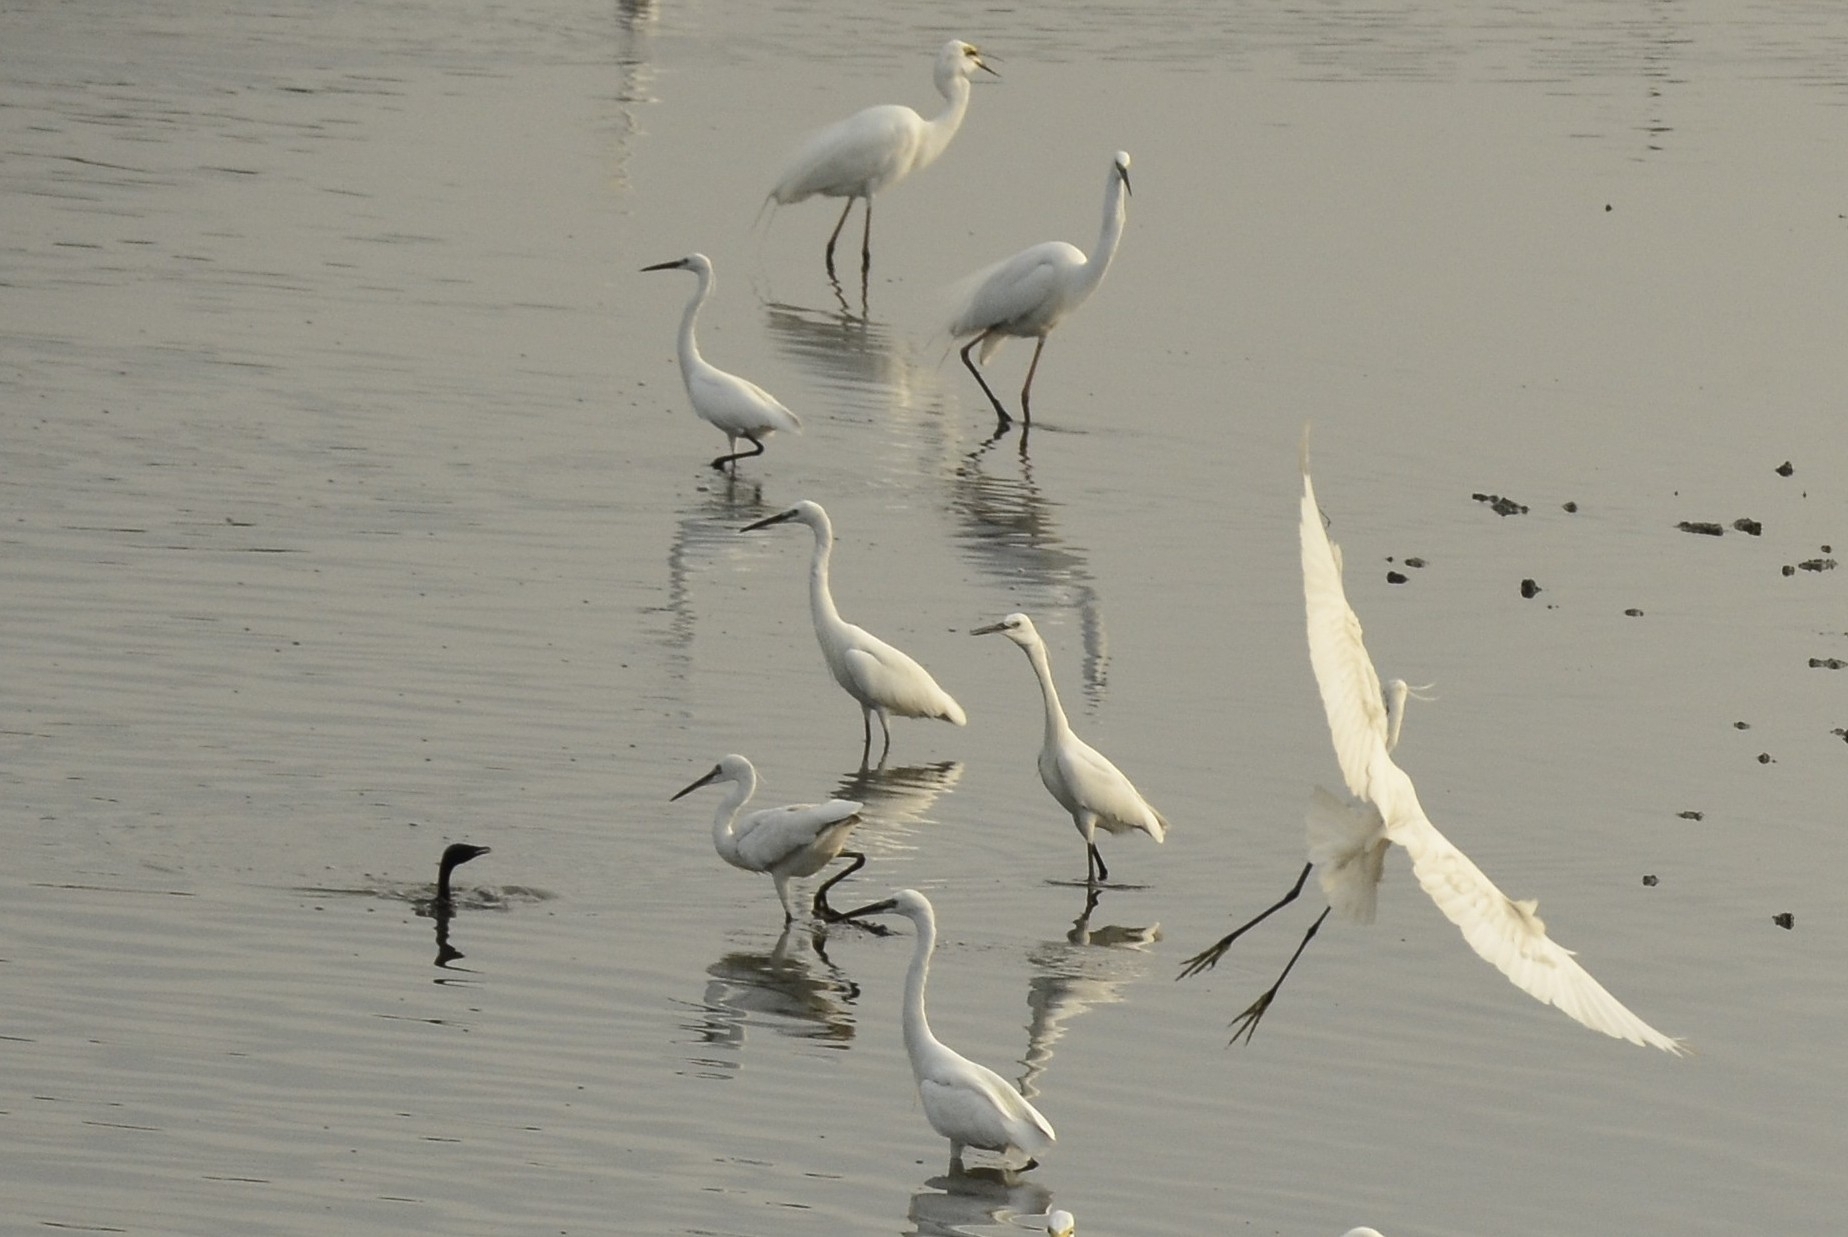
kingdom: Animalia
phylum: Chordata
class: Aves
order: Pelecaniformes
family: Ardeidae
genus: Egretta
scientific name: Egretta garzetta
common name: Little egret
